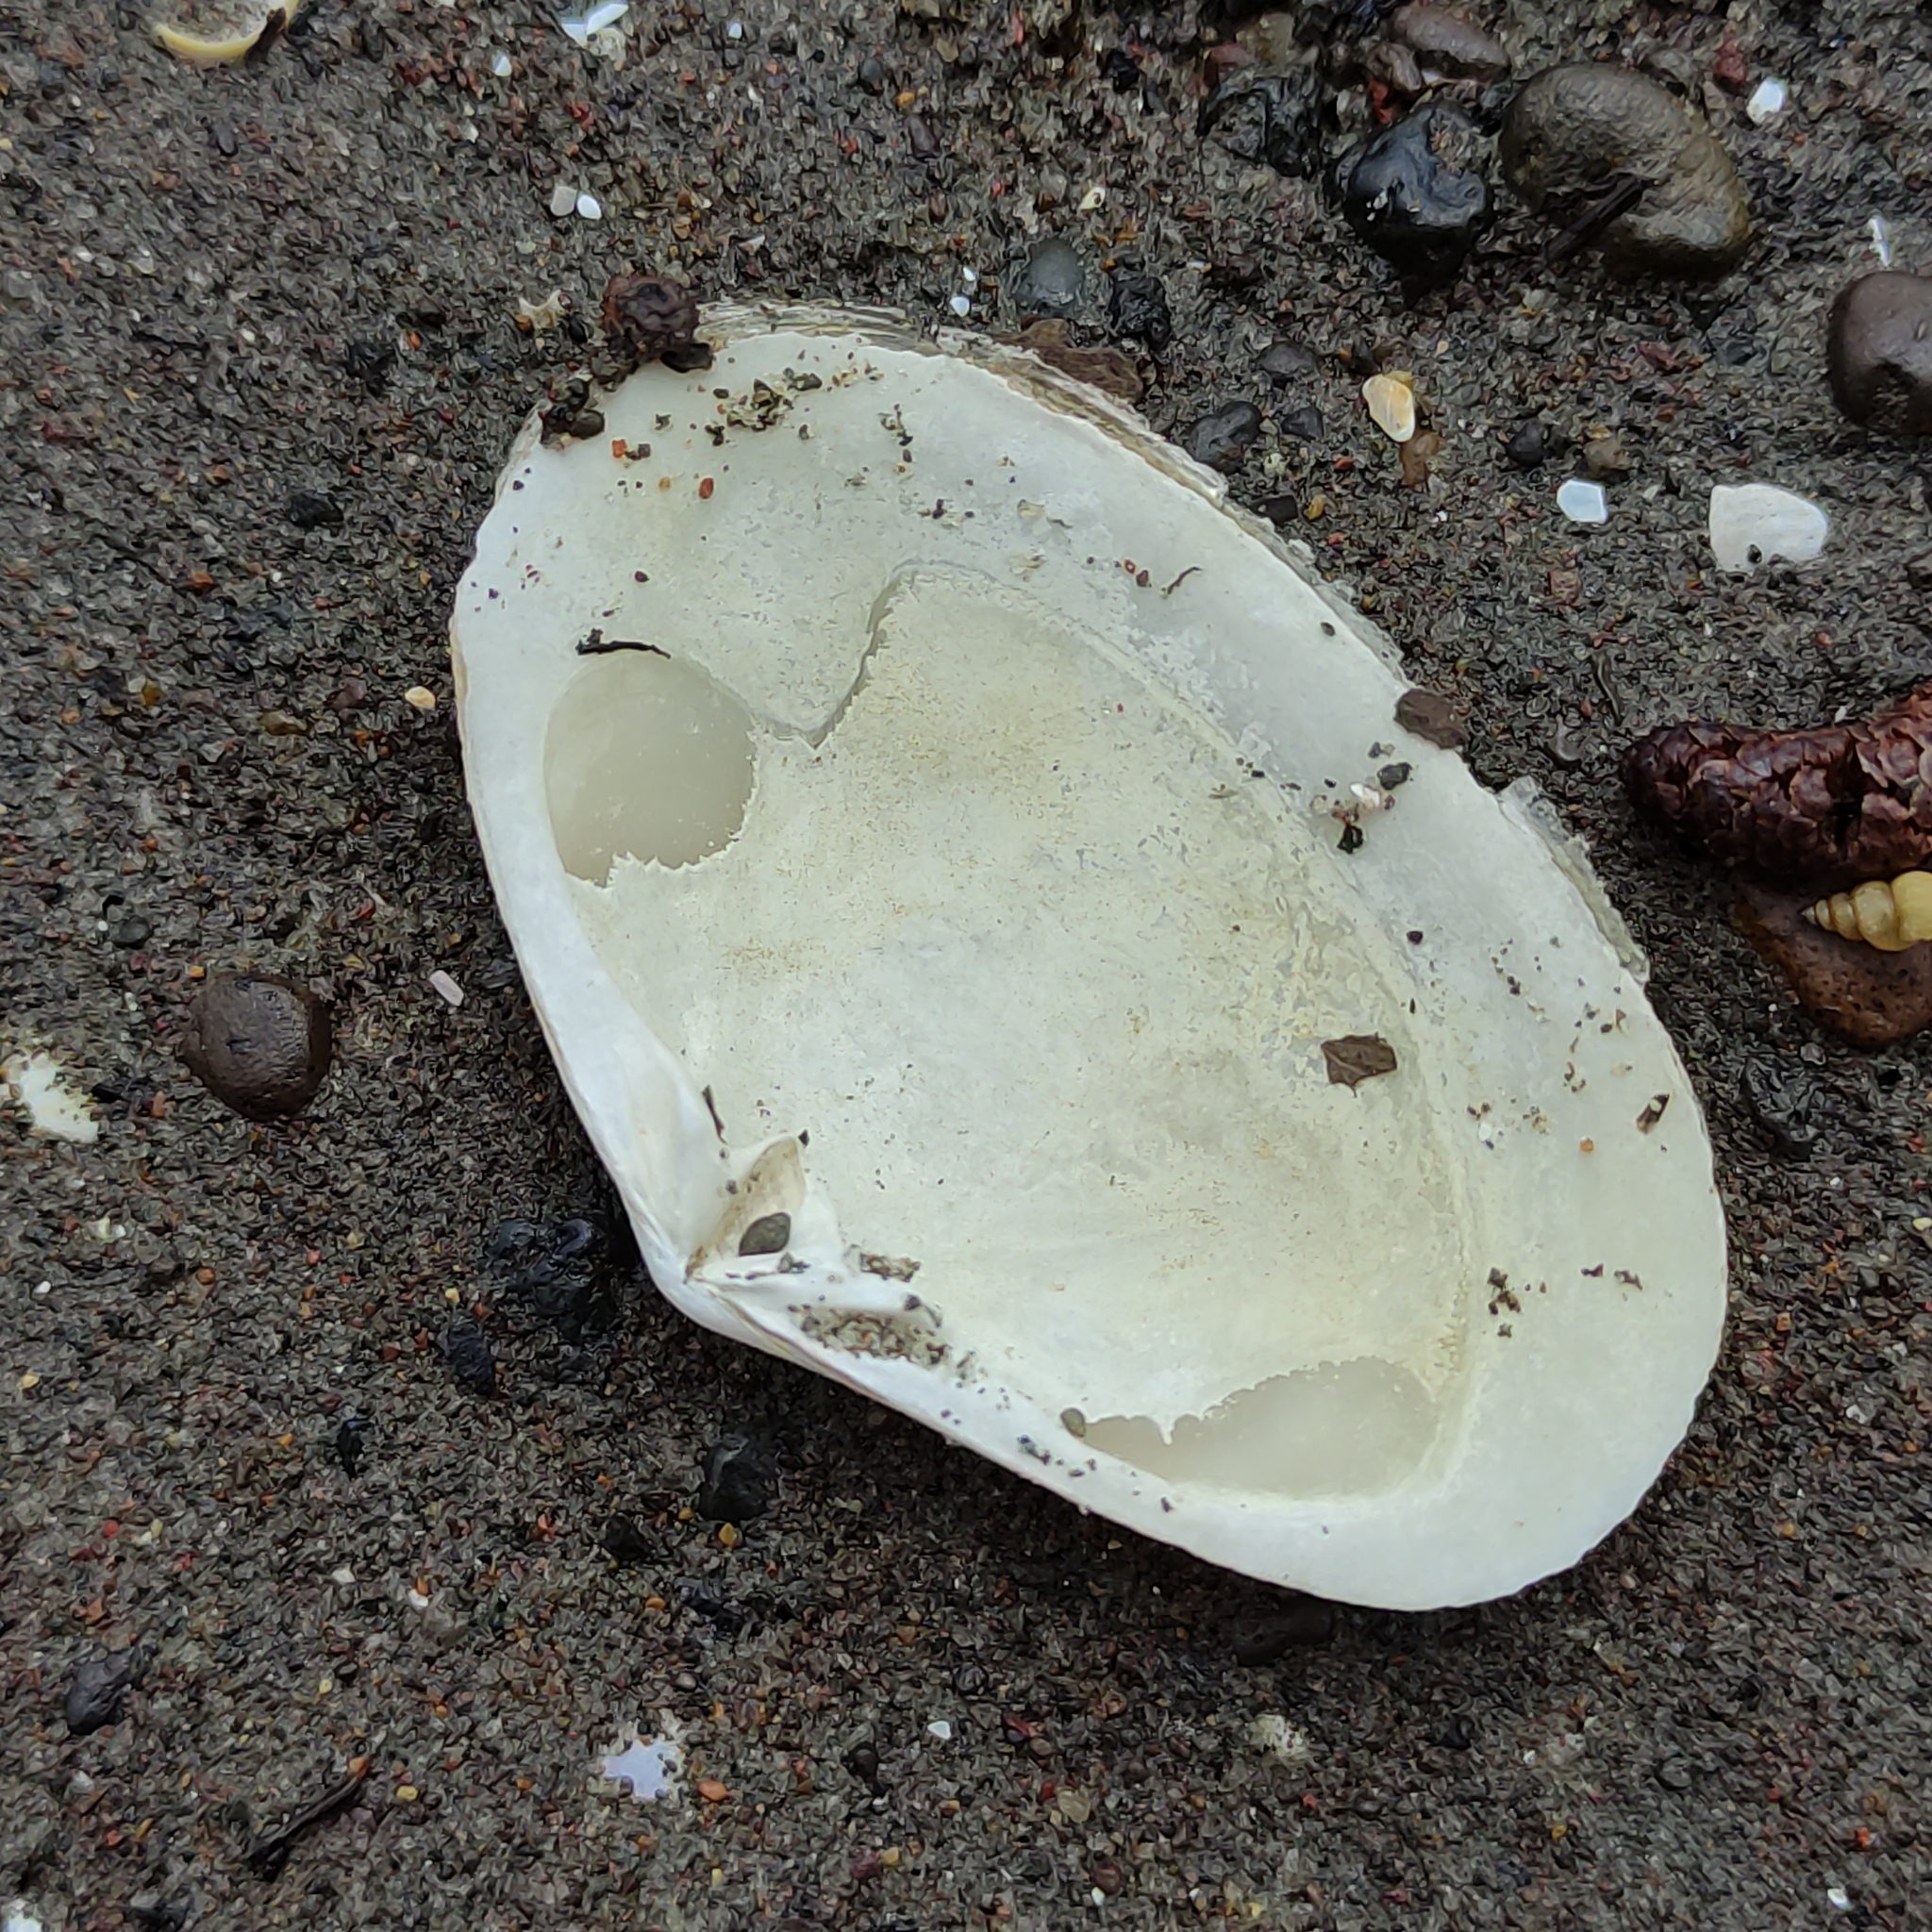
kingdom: Animalia
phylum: Mollusca
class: Bivalvia
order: Venerida
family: Mesodesmatidae
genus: Paphies
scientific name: Paphies australis
